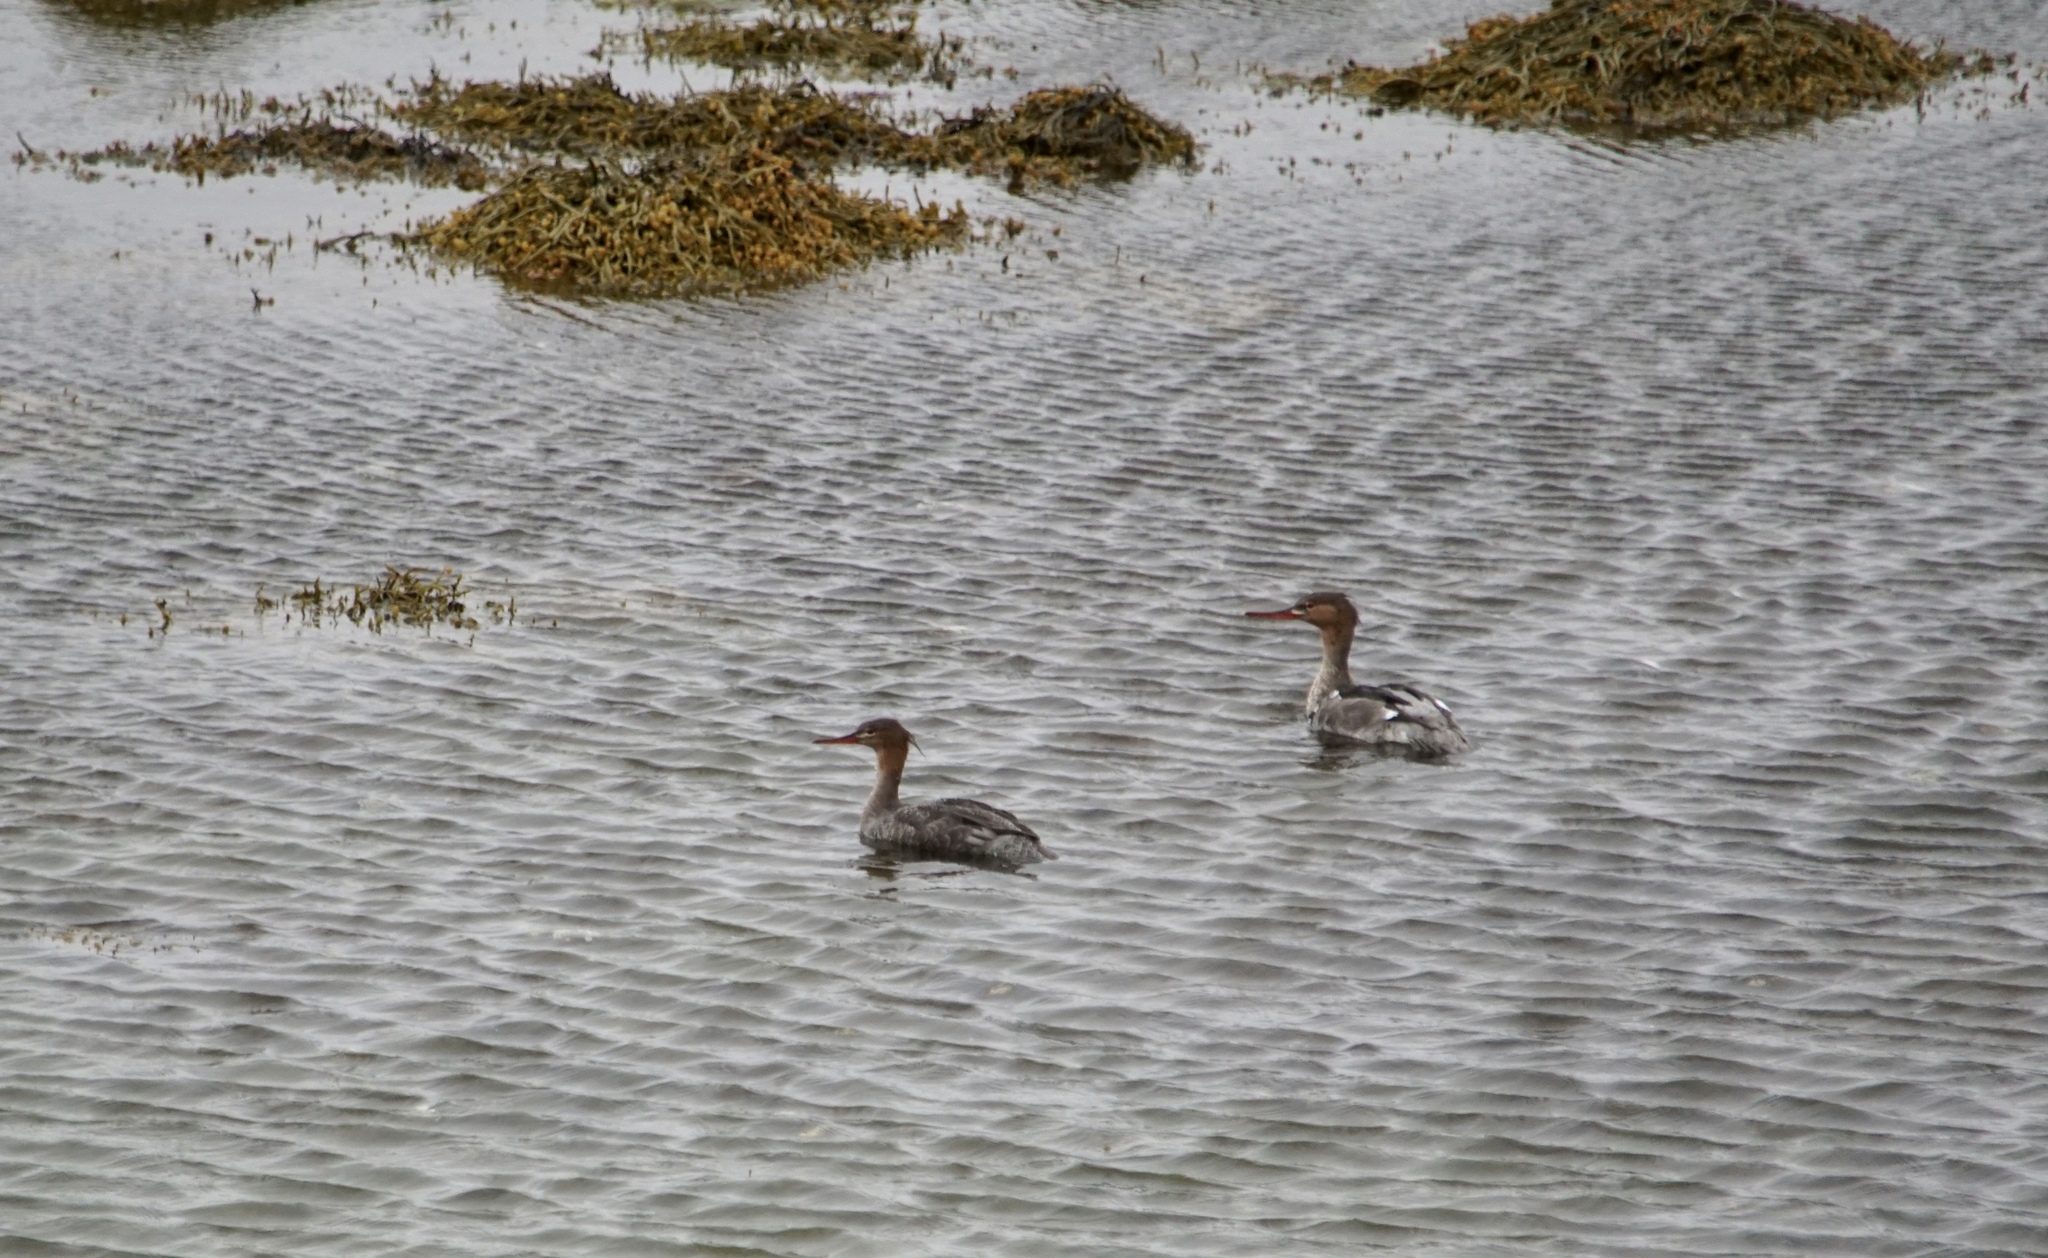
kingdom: Animalia
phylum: Chordata
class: Aves
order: Anseriformes
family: Anatidae
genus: Mergus
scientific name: Mergus serrator
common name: Red-breasted merganser
